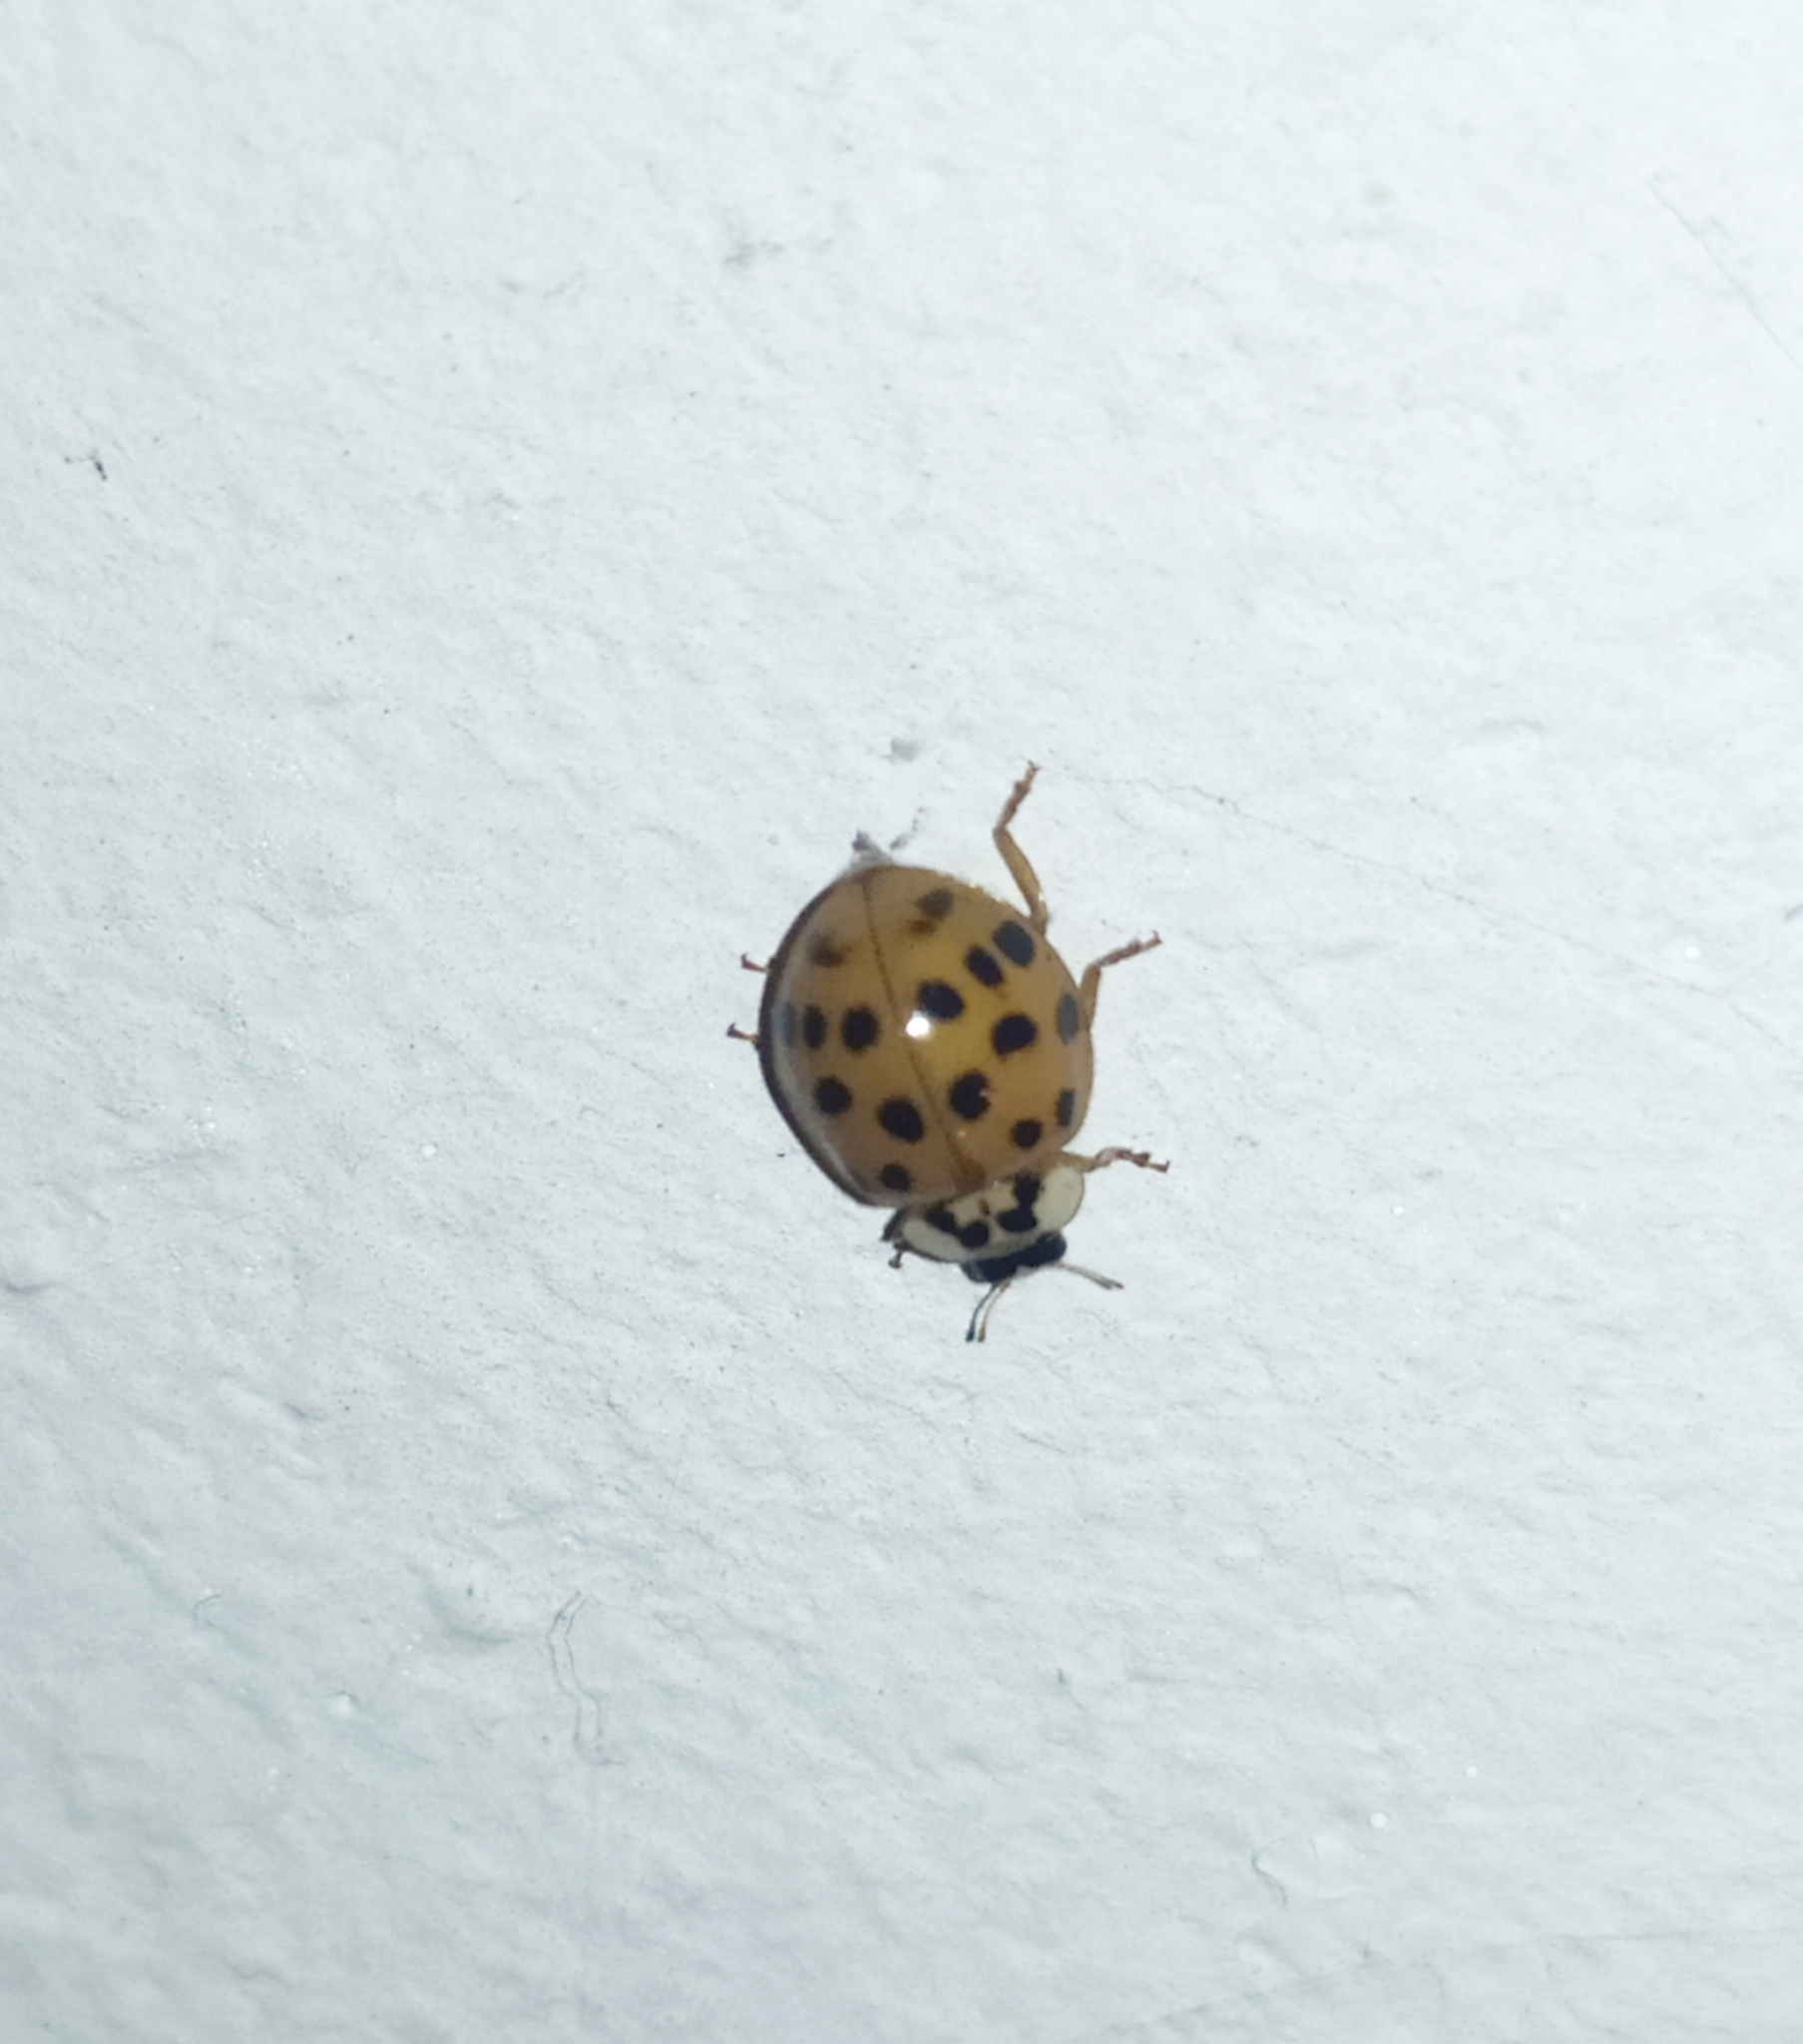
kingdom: Animalia
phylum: Arthropoda
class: Insecta
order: Coleoptera
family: Coccinellidae
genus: Harmonia
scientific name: Harmonia axyridis
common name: Harlequin ladybird
